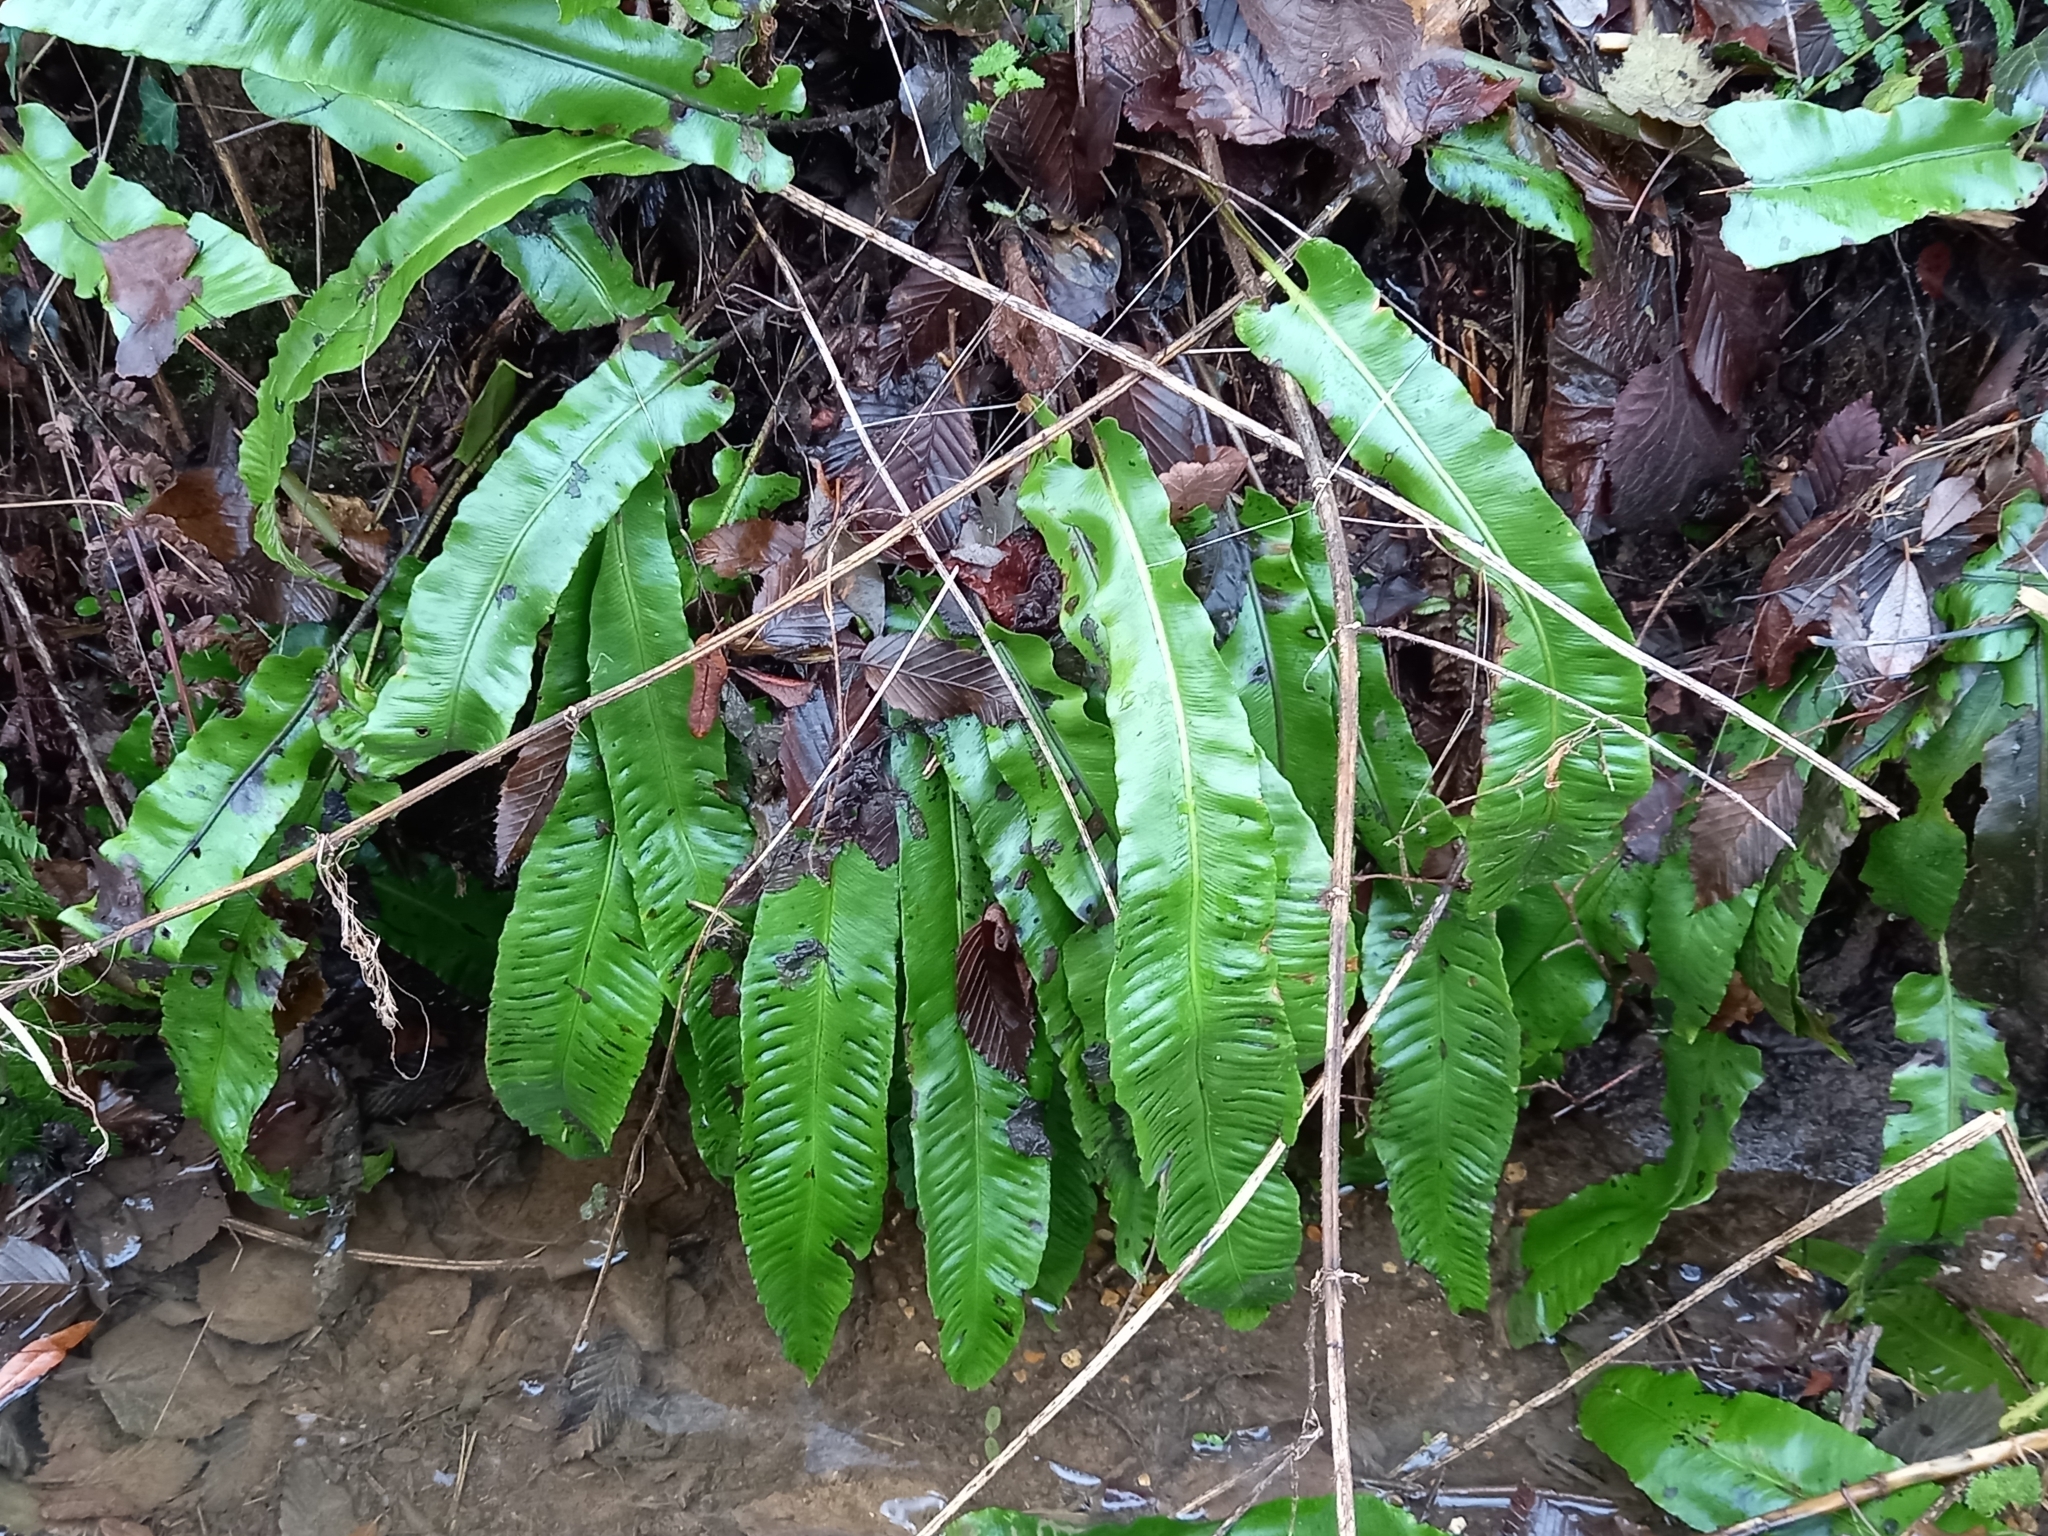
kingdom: Plantae
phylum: Tracheophyta
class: Polypodiopsida
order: Polypodiales
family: Aspleniaceae
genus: Asplenium
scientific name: Asplenium scolopendrium
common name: Hart's-tongue fern
